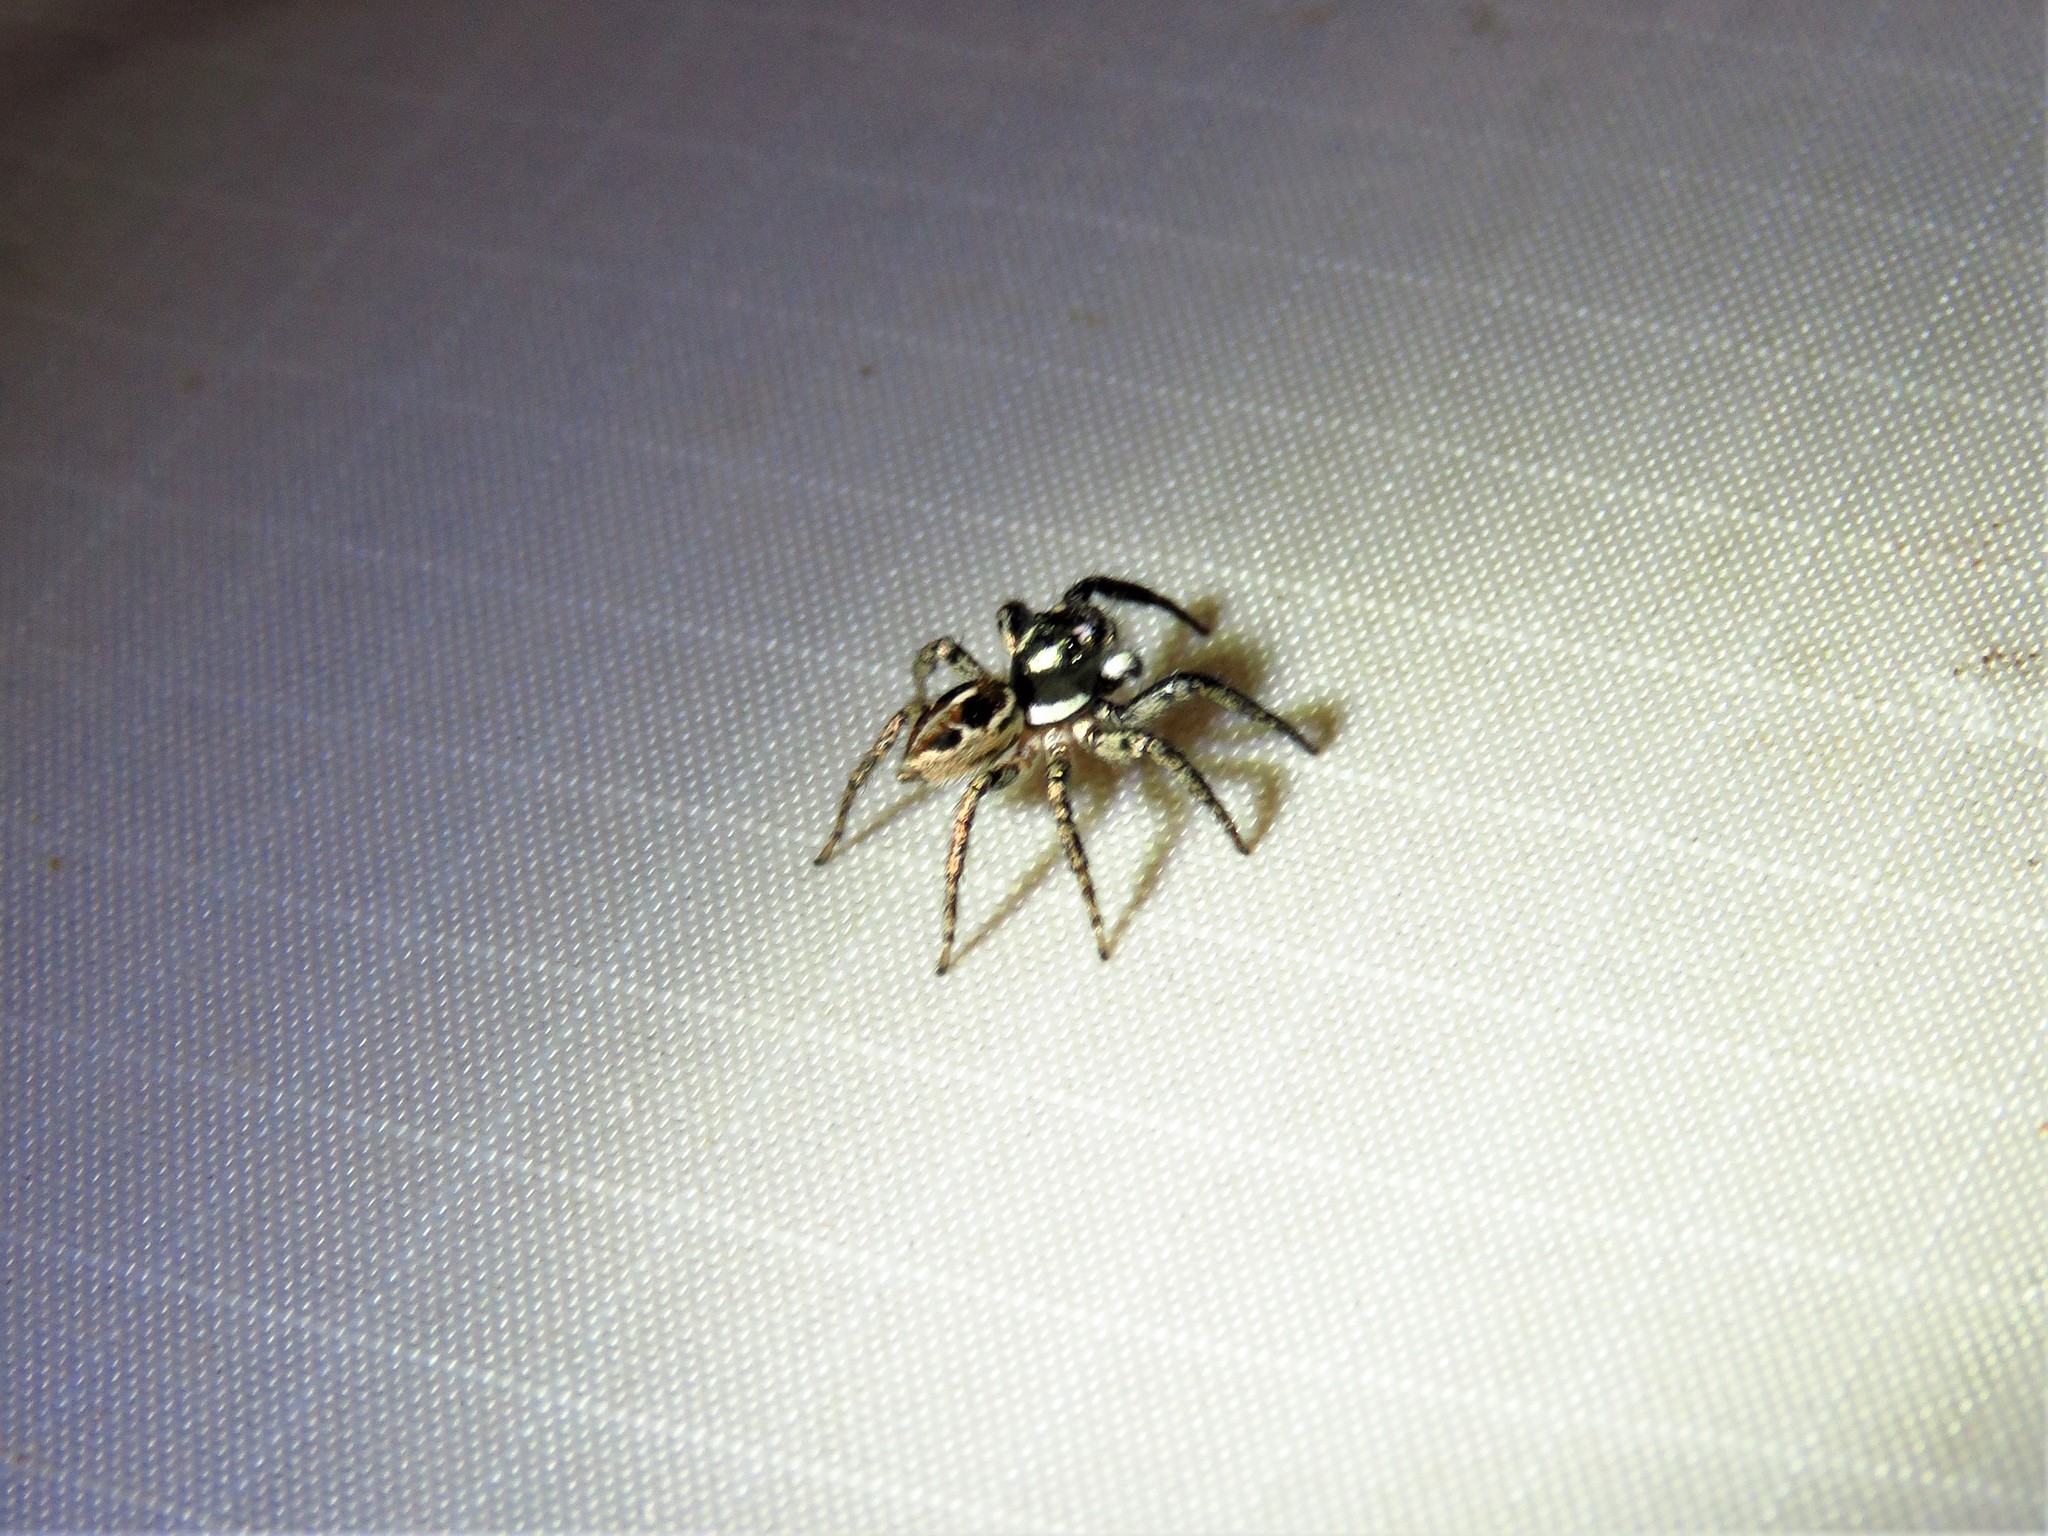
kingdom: Animalia
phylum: Arthropoda
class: Arachnida
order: Araneae
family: Salticidae
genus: Anasaitis
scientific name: Anasaitis canosa
